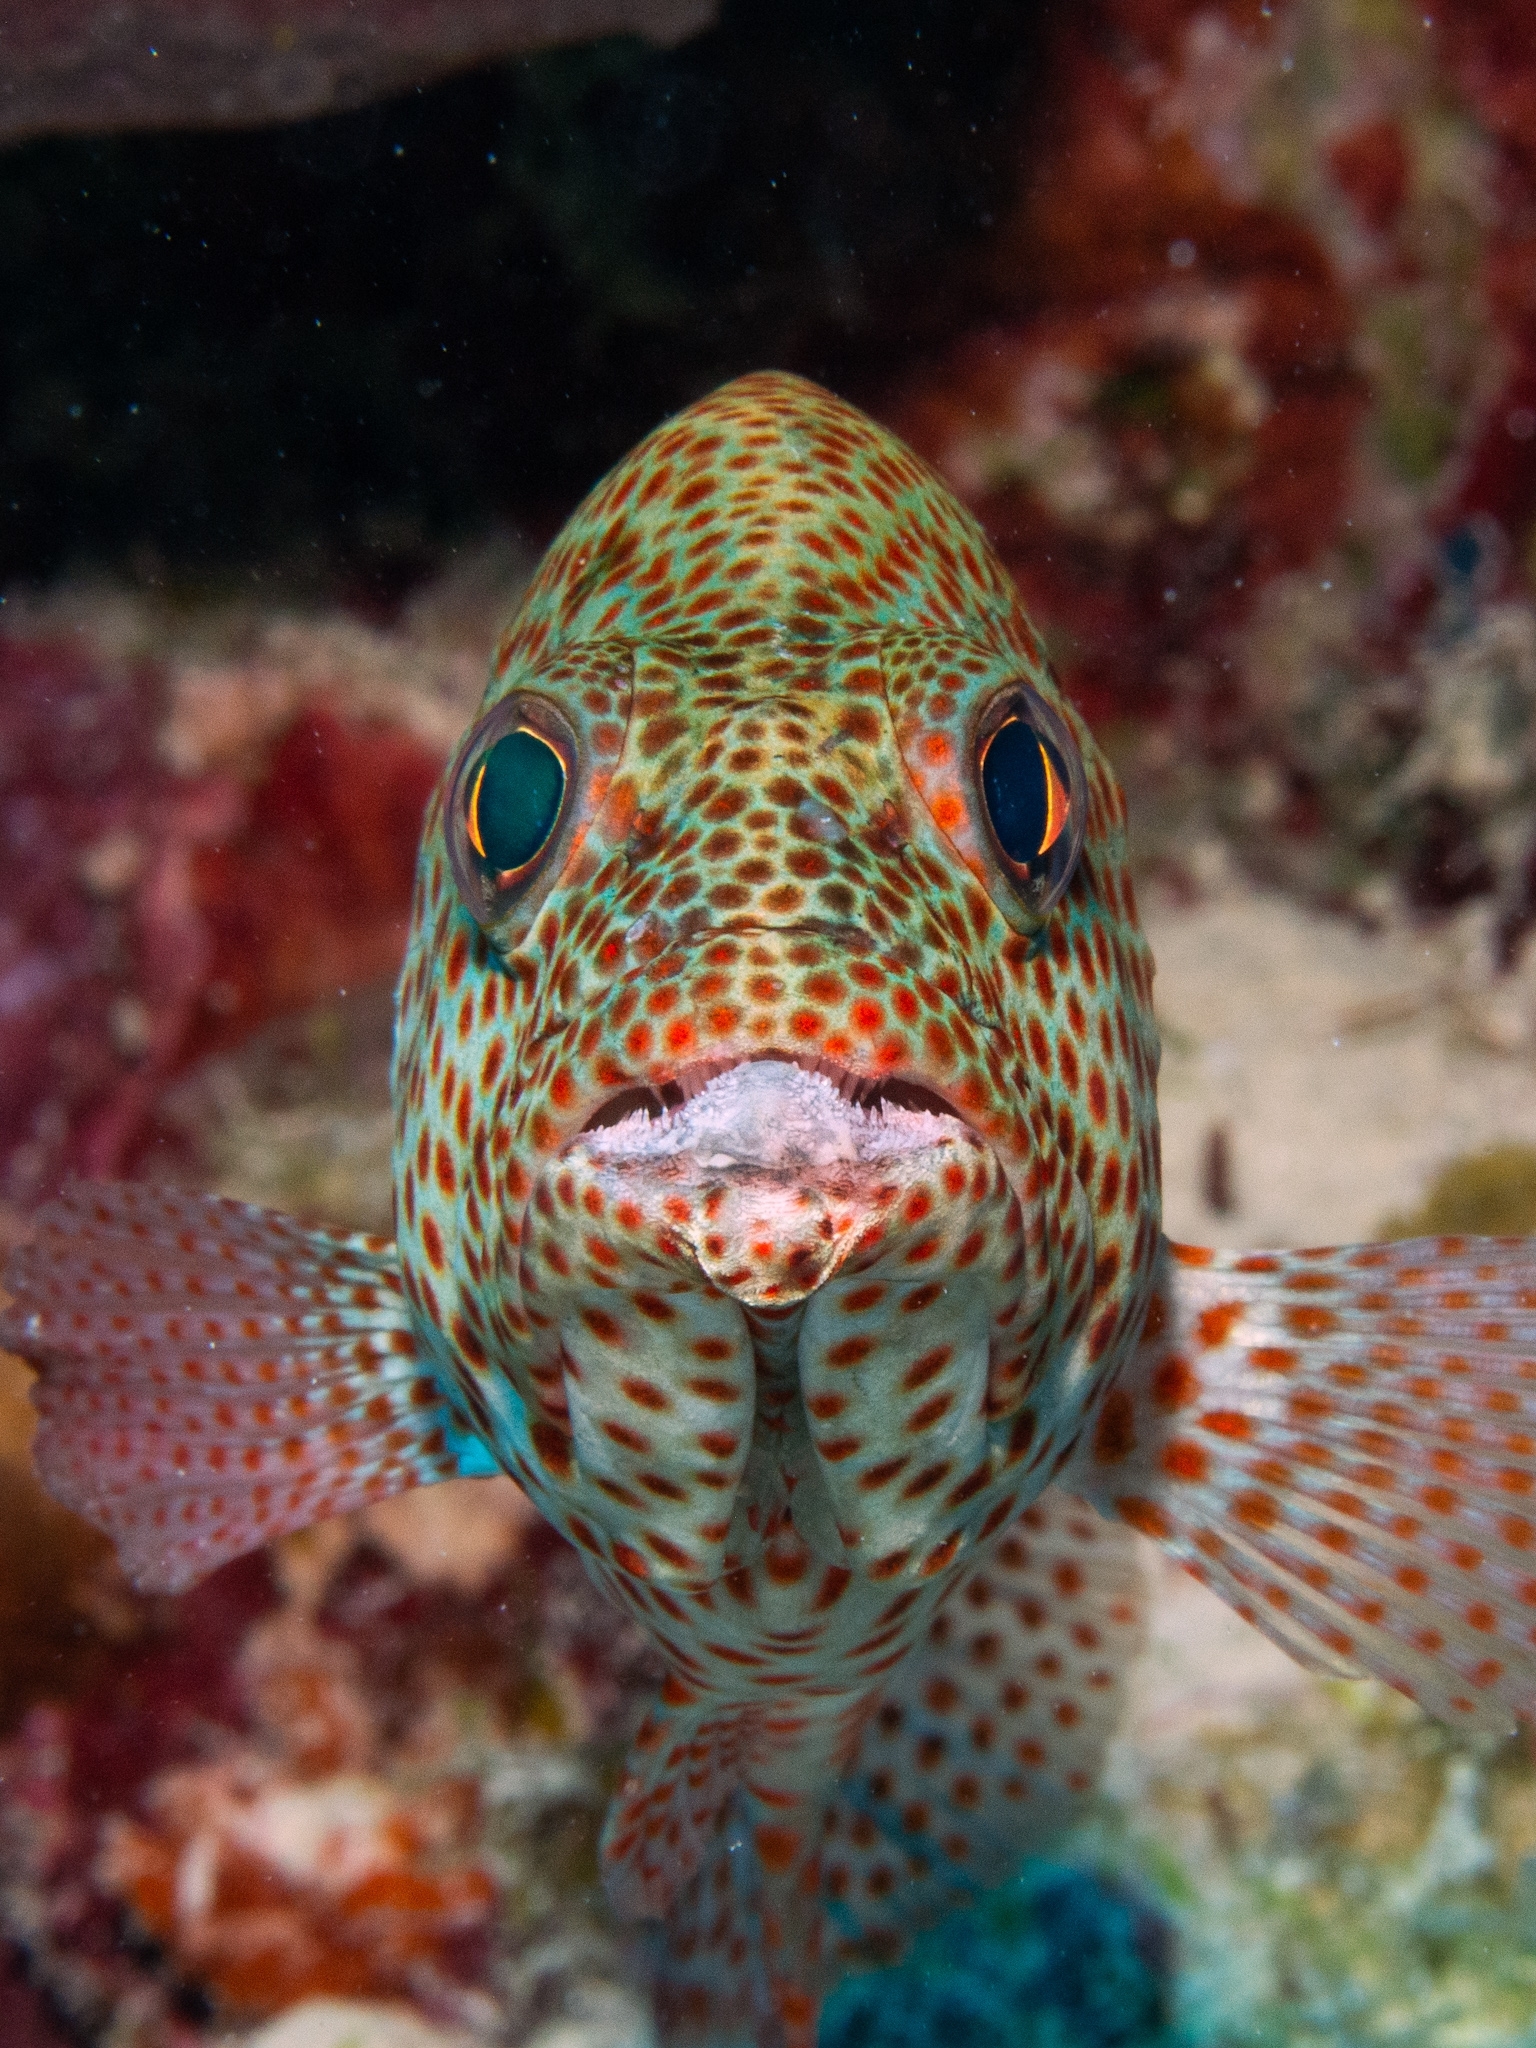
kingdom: Animalia
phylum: Chordata
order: Perciformes
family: Serranidae
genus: Cephalopholis
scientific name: Cephalopholis cruentata
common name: Graysby
